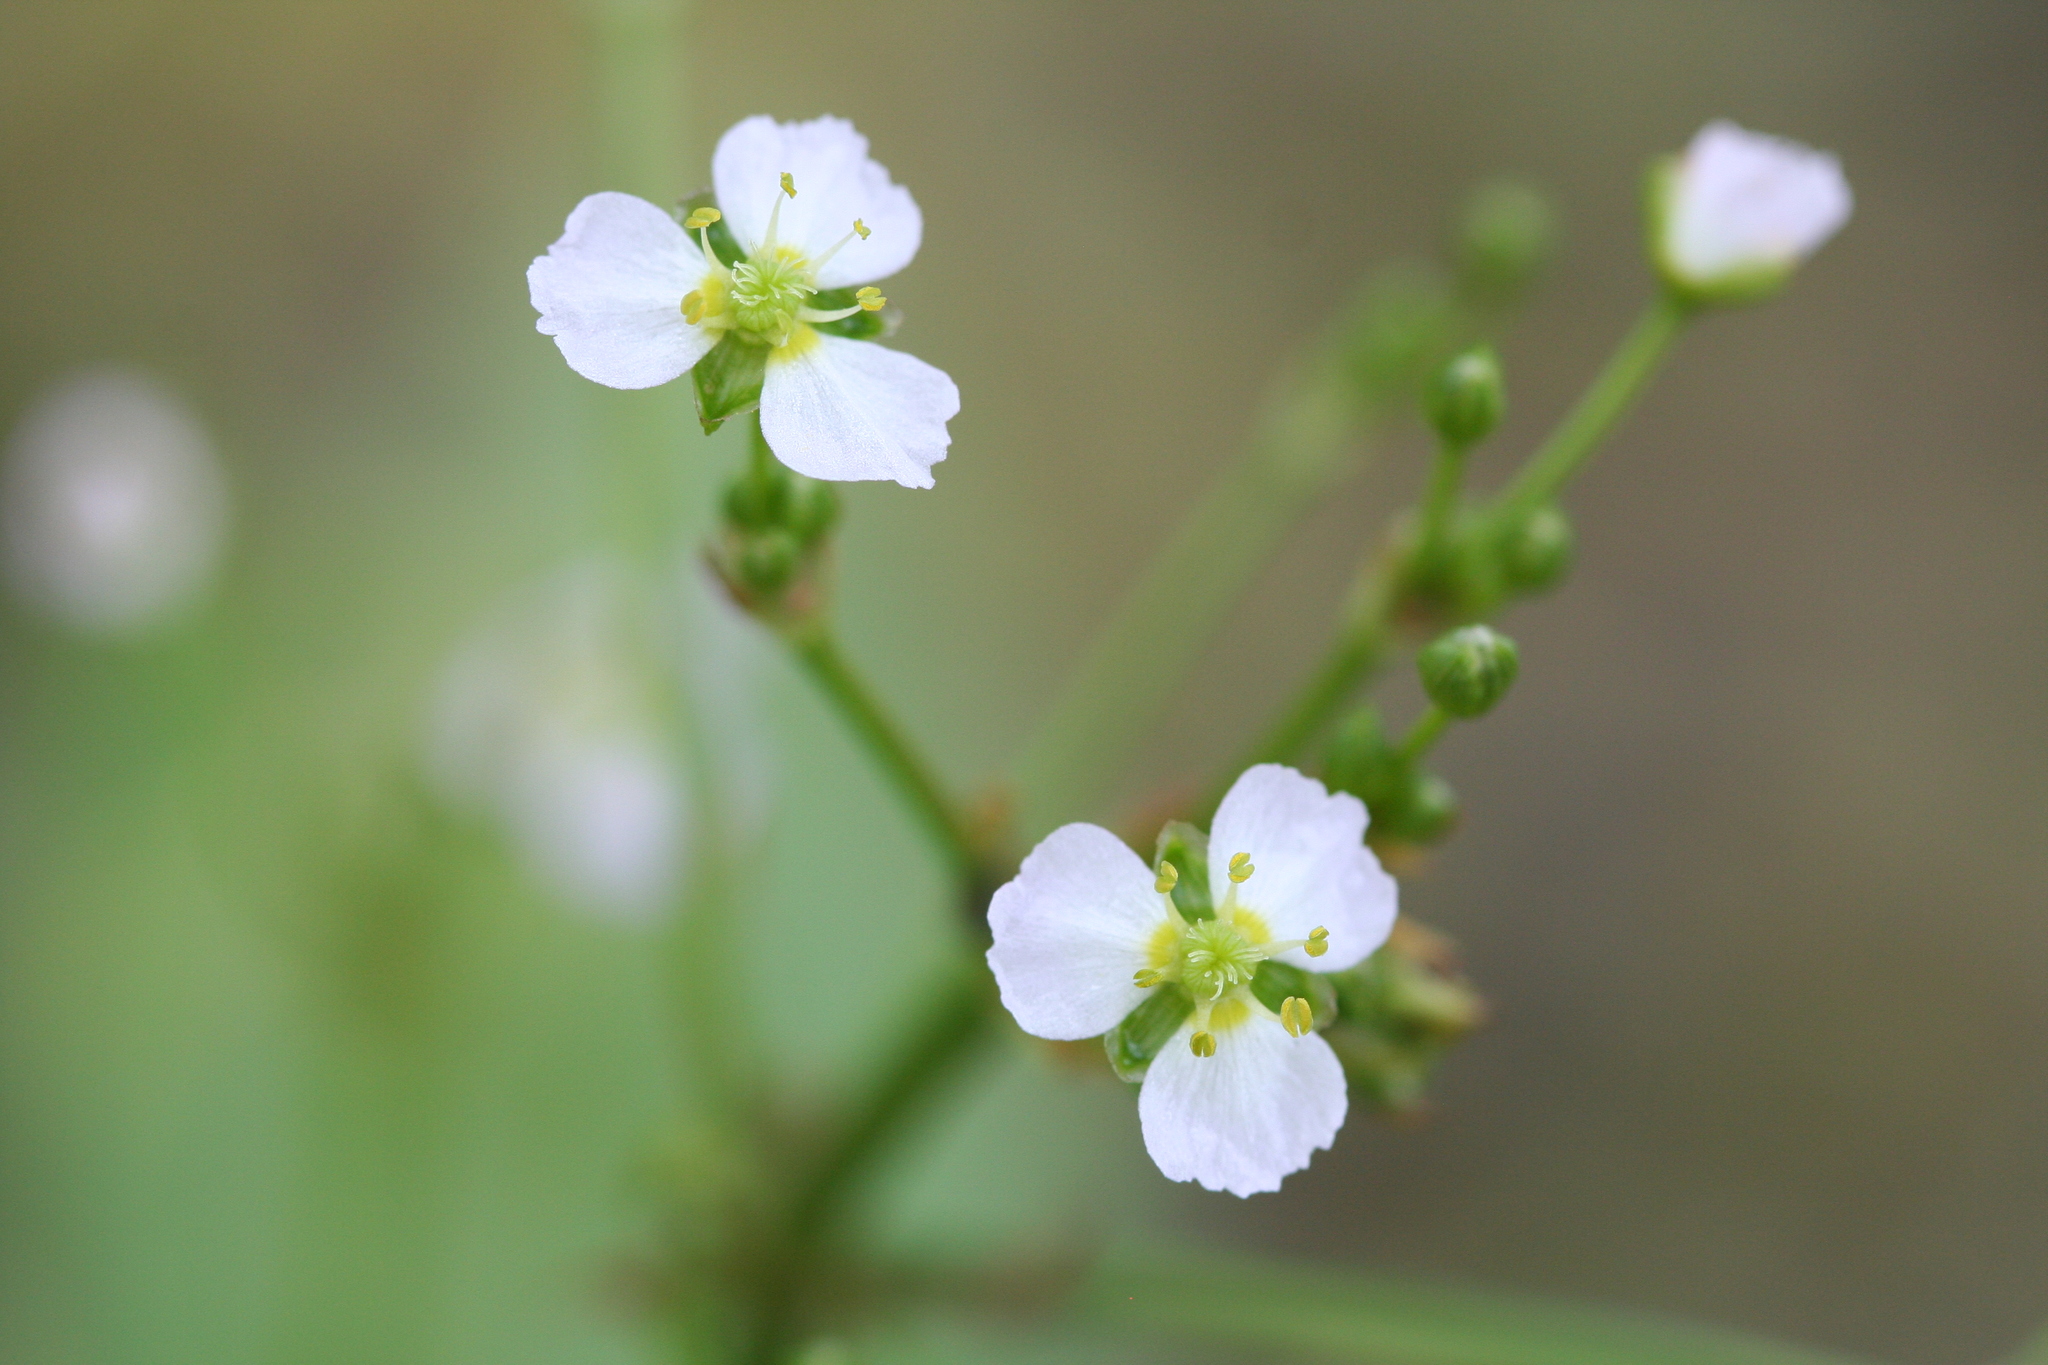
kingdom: Plantae
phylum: Tracheophyta
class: Liliopsida
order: Alismatales
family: Alismataceae
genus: Alisma
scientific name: Alisma plantago-aquatica
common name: Water-plantain
